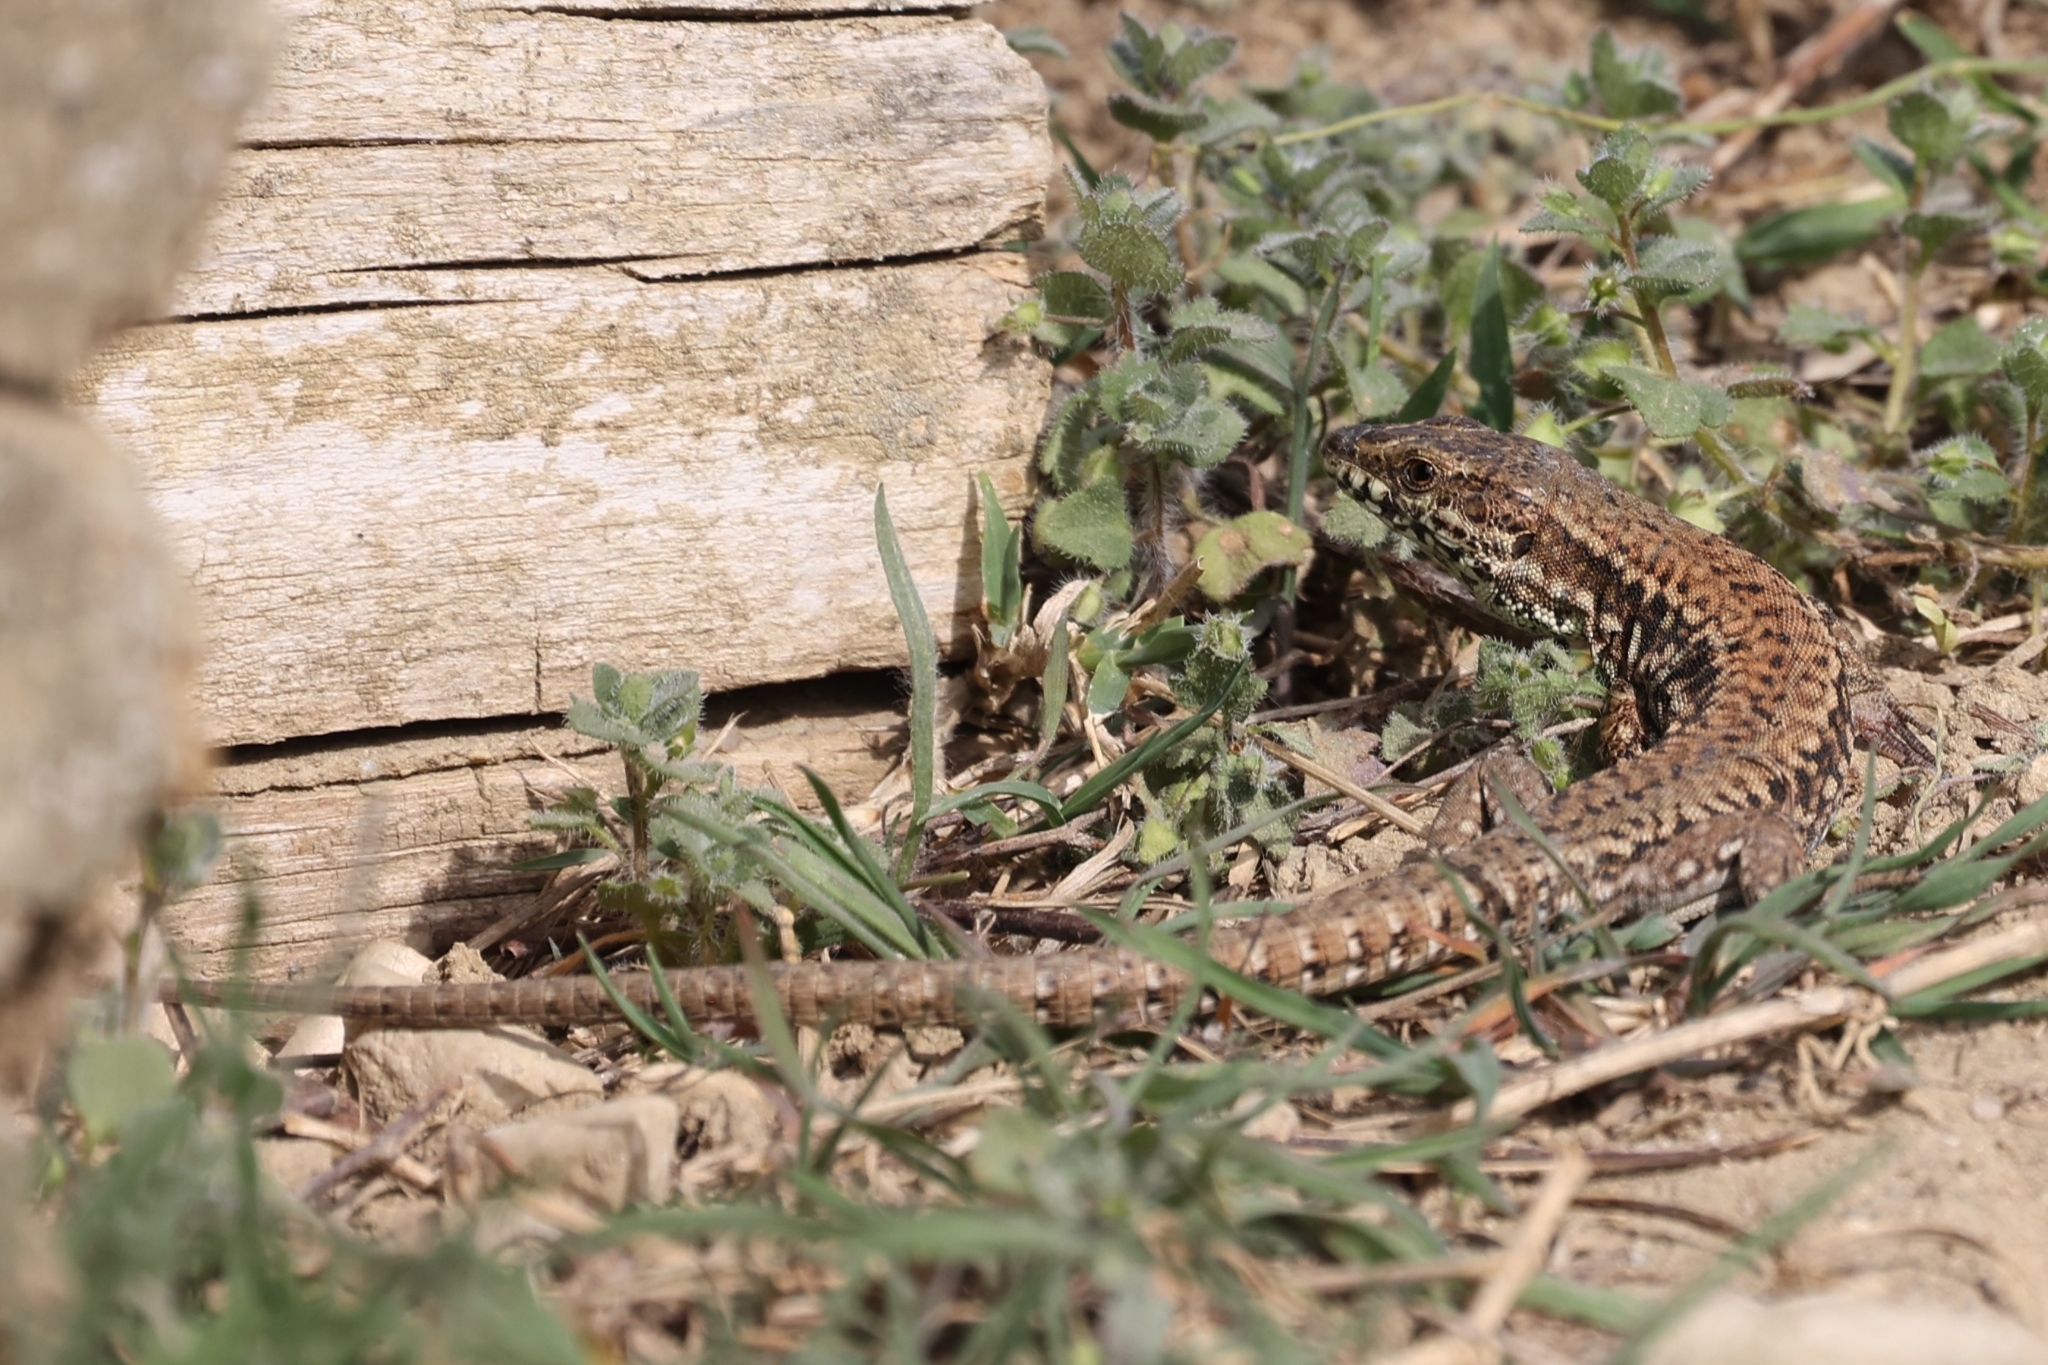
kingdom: Animalia
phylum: Chordata
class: Squamata
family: Lacertidae
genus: Podarcis
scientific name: Podarcis muralis
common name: Common wall lizard
